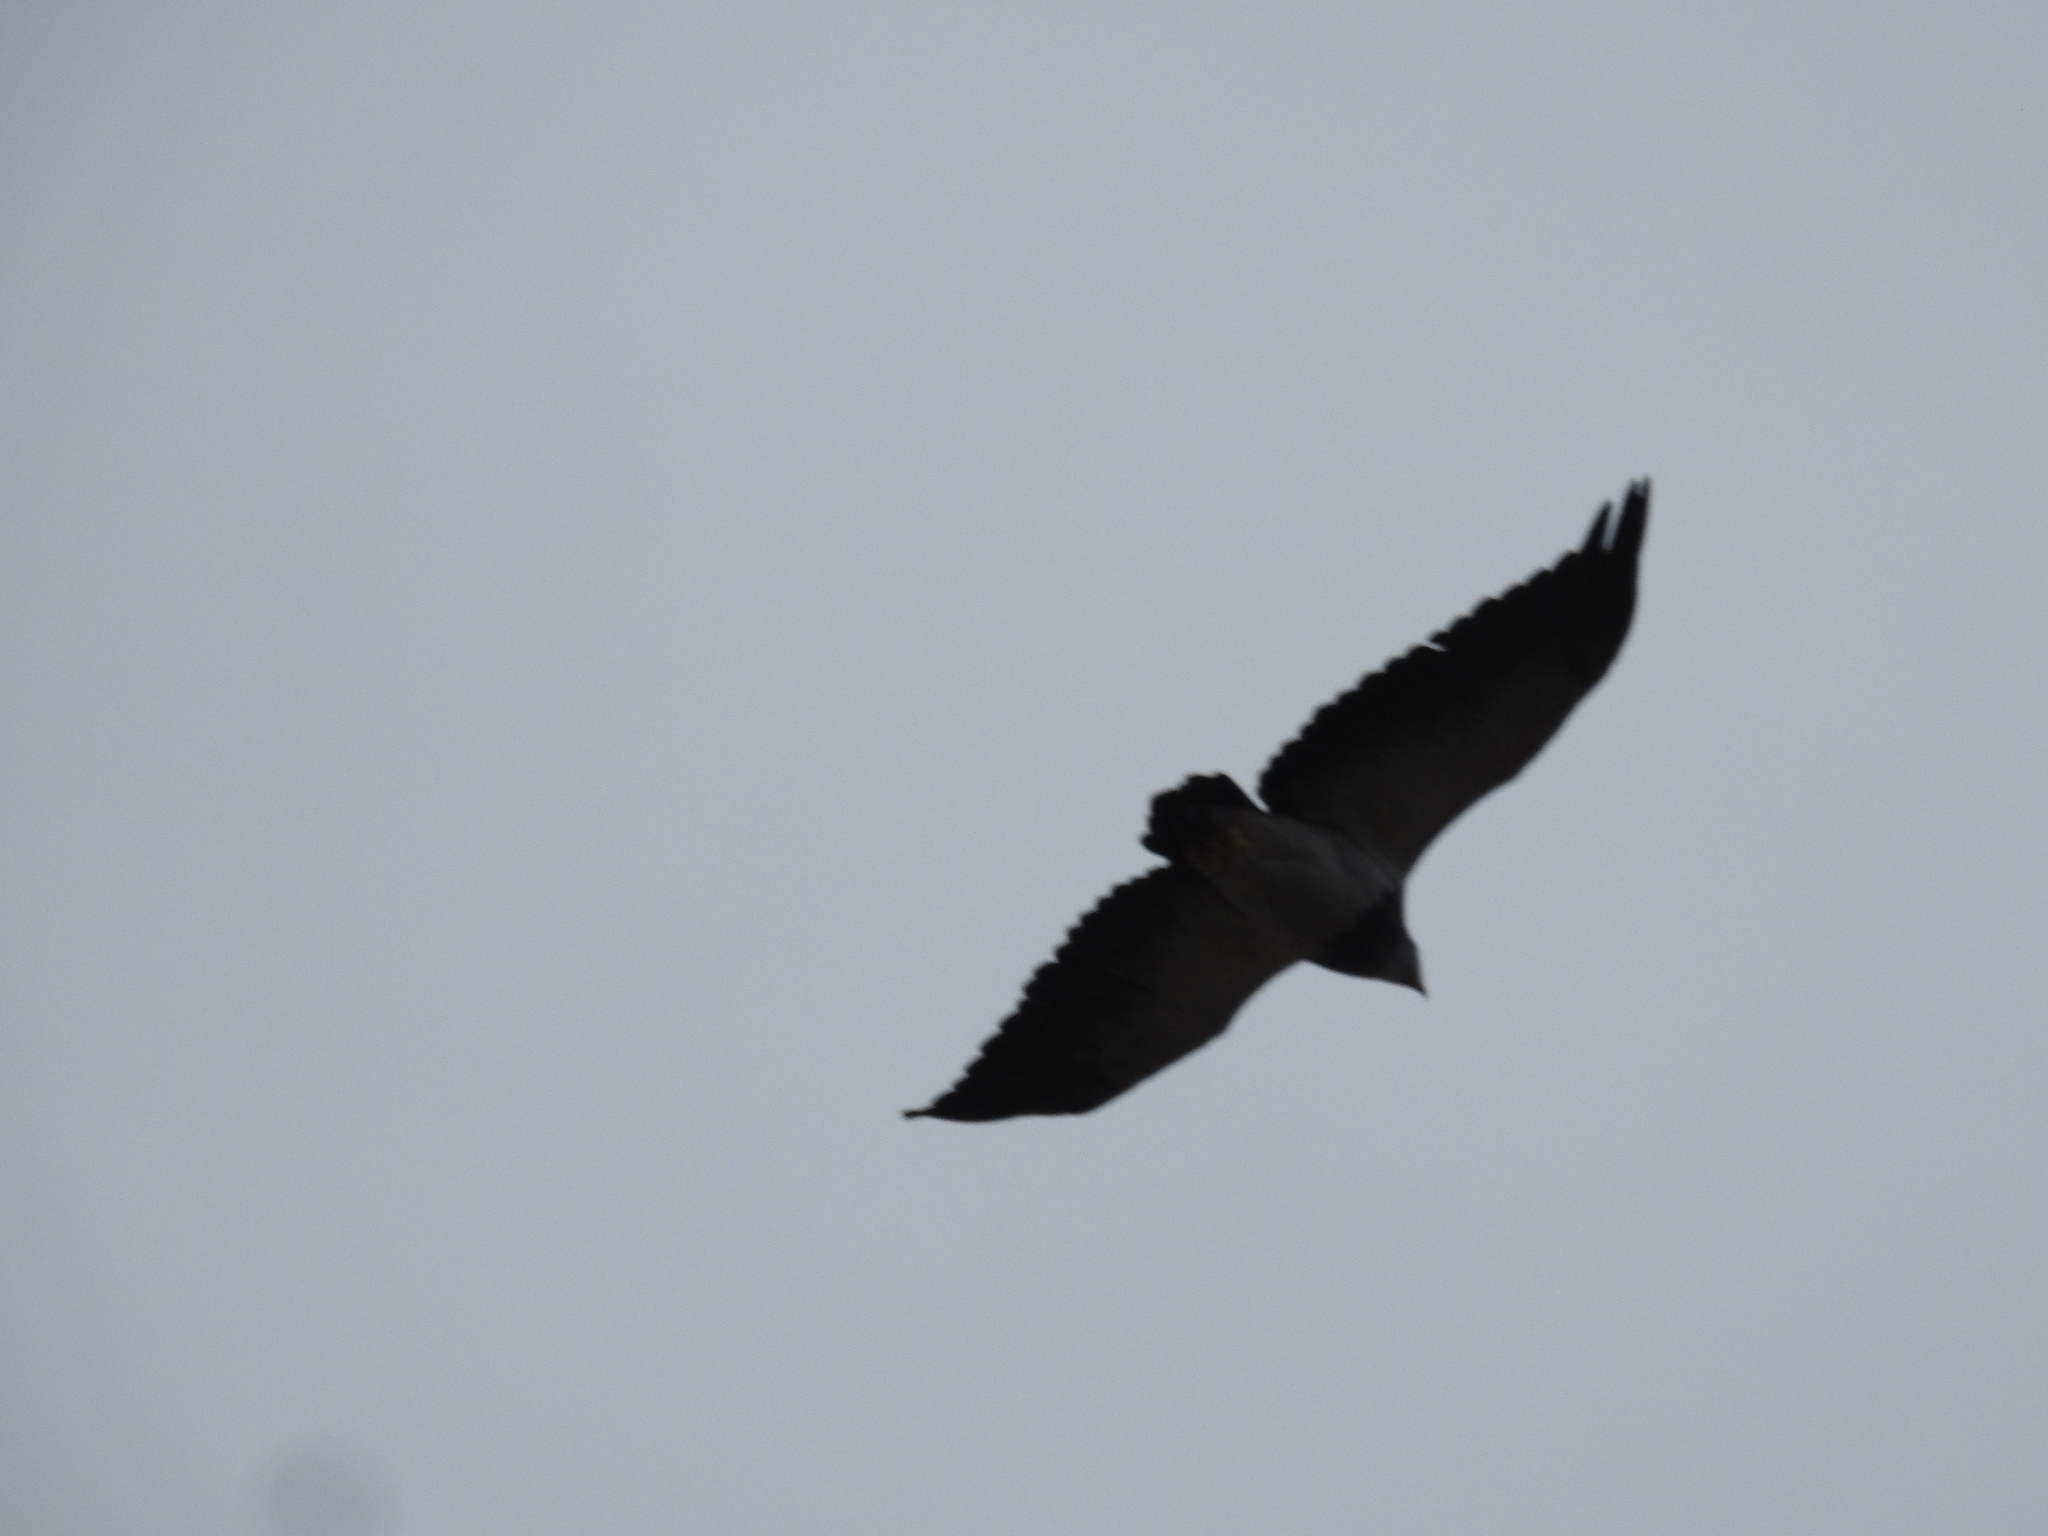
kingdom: Animalia
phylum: Chordata
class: Aves
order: Accipitriformes
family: Accipitridae
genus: Geranoaetus
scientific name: Geranoaetus melanoleucus
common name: Black-chested buzzard-eagle
